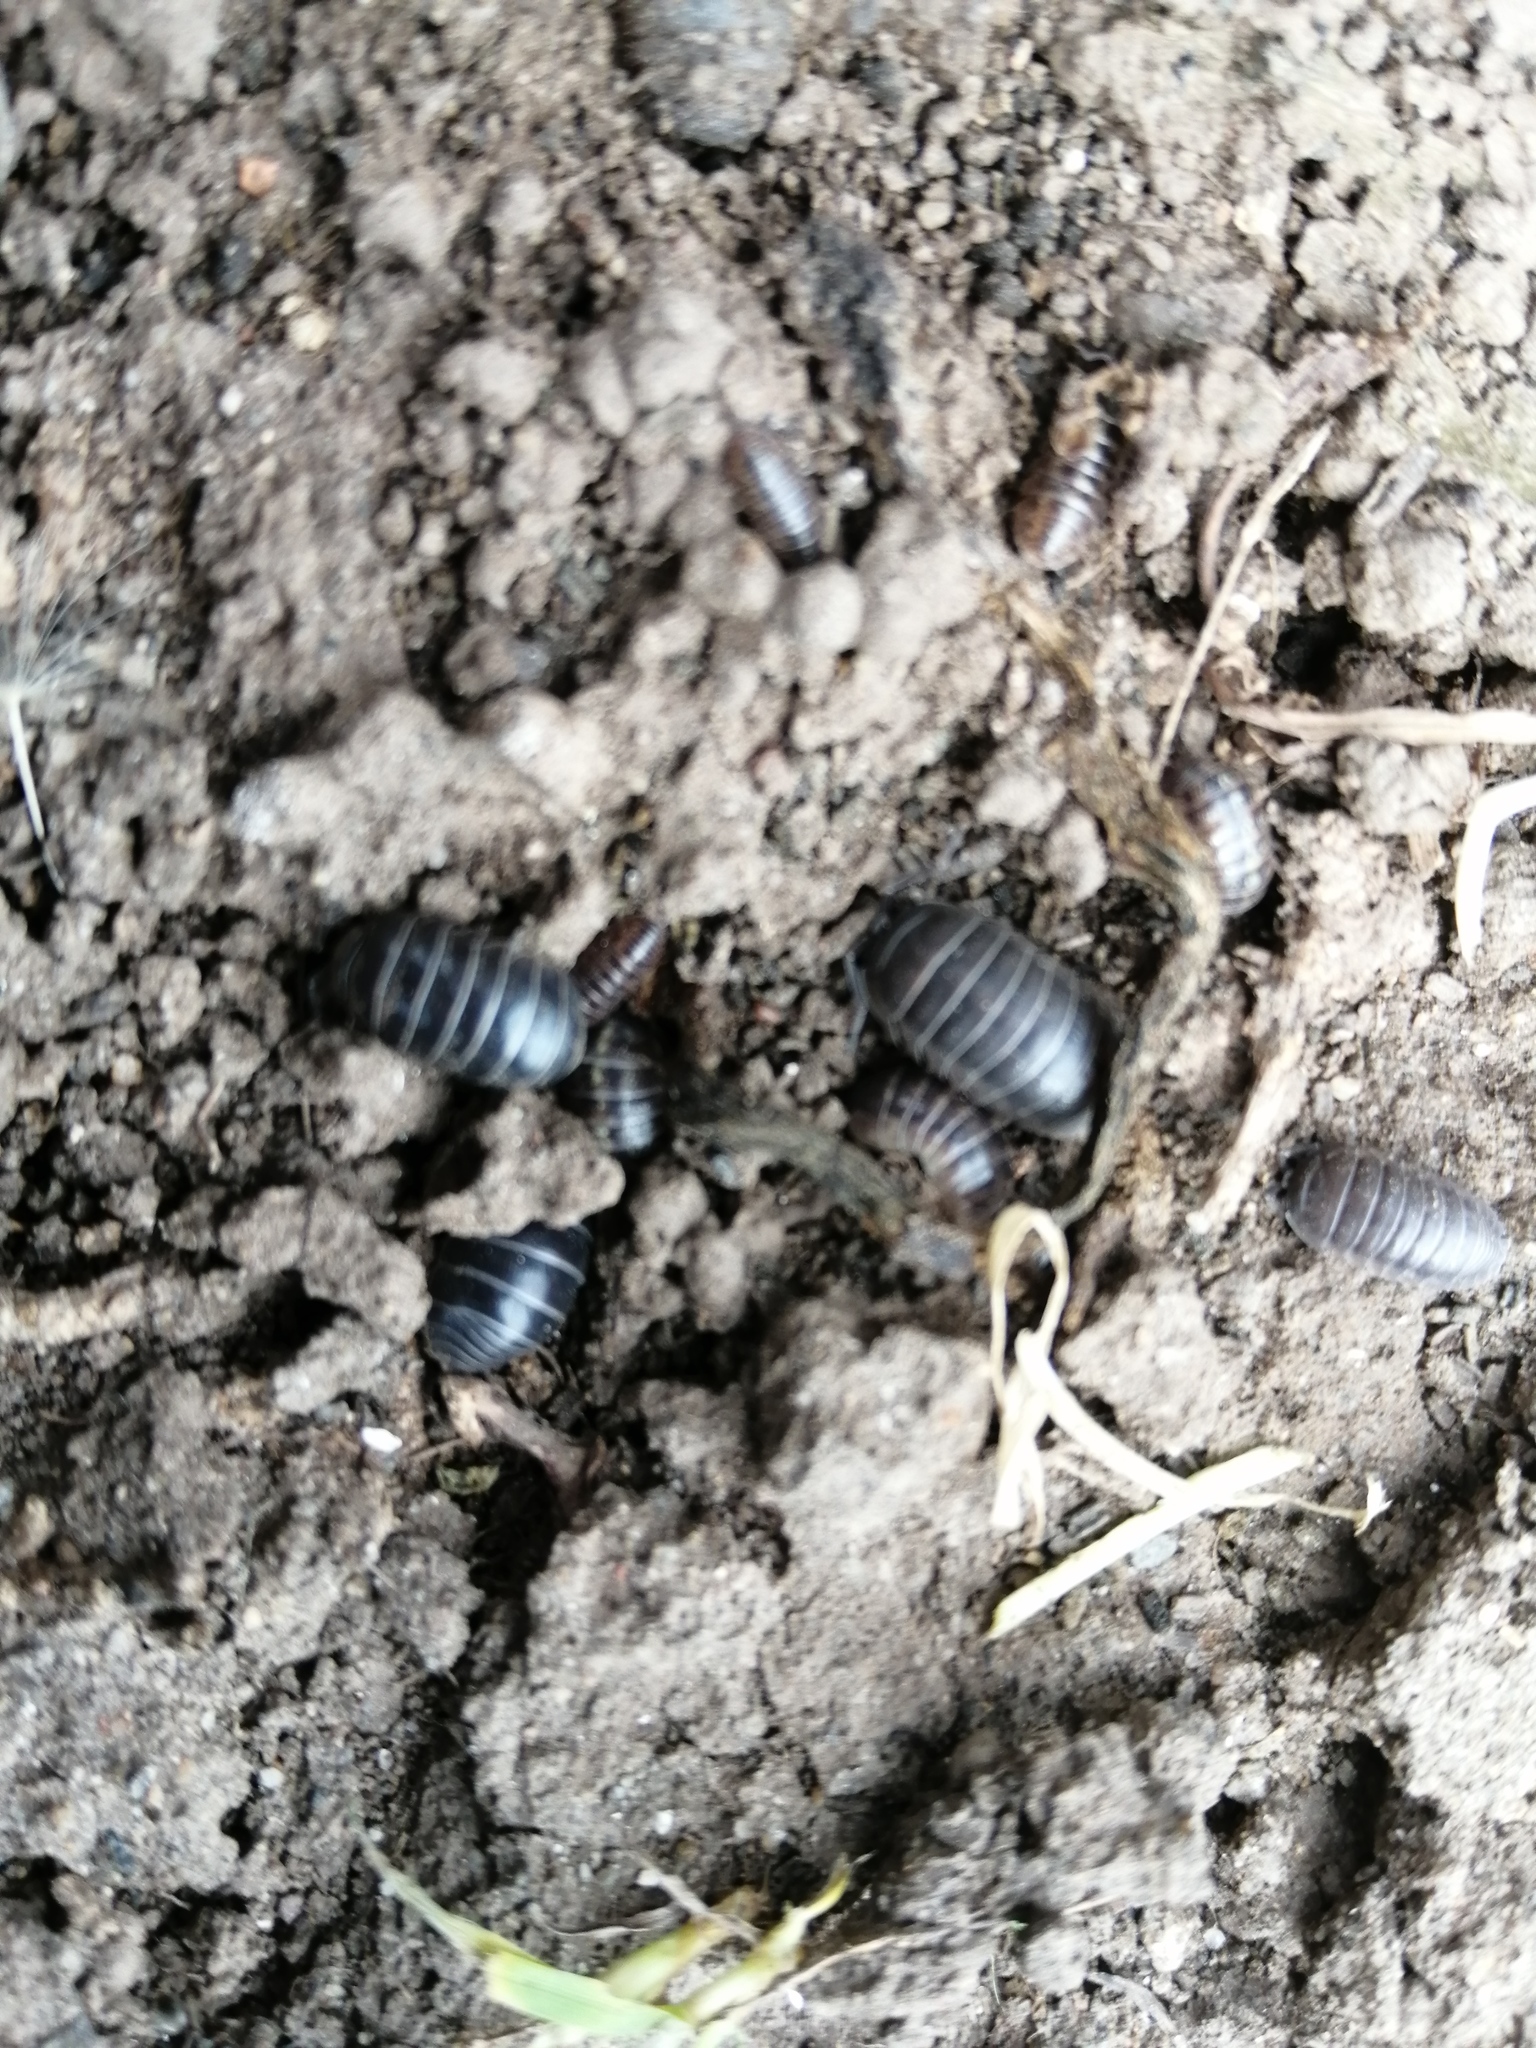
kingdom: Animalia
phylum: Arthropoda
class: Malacostraca
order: Isopoda
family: Armadillidiidae
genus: Armadillidium
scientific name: Armadillidium vulgare
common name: Common pill woodlouse
